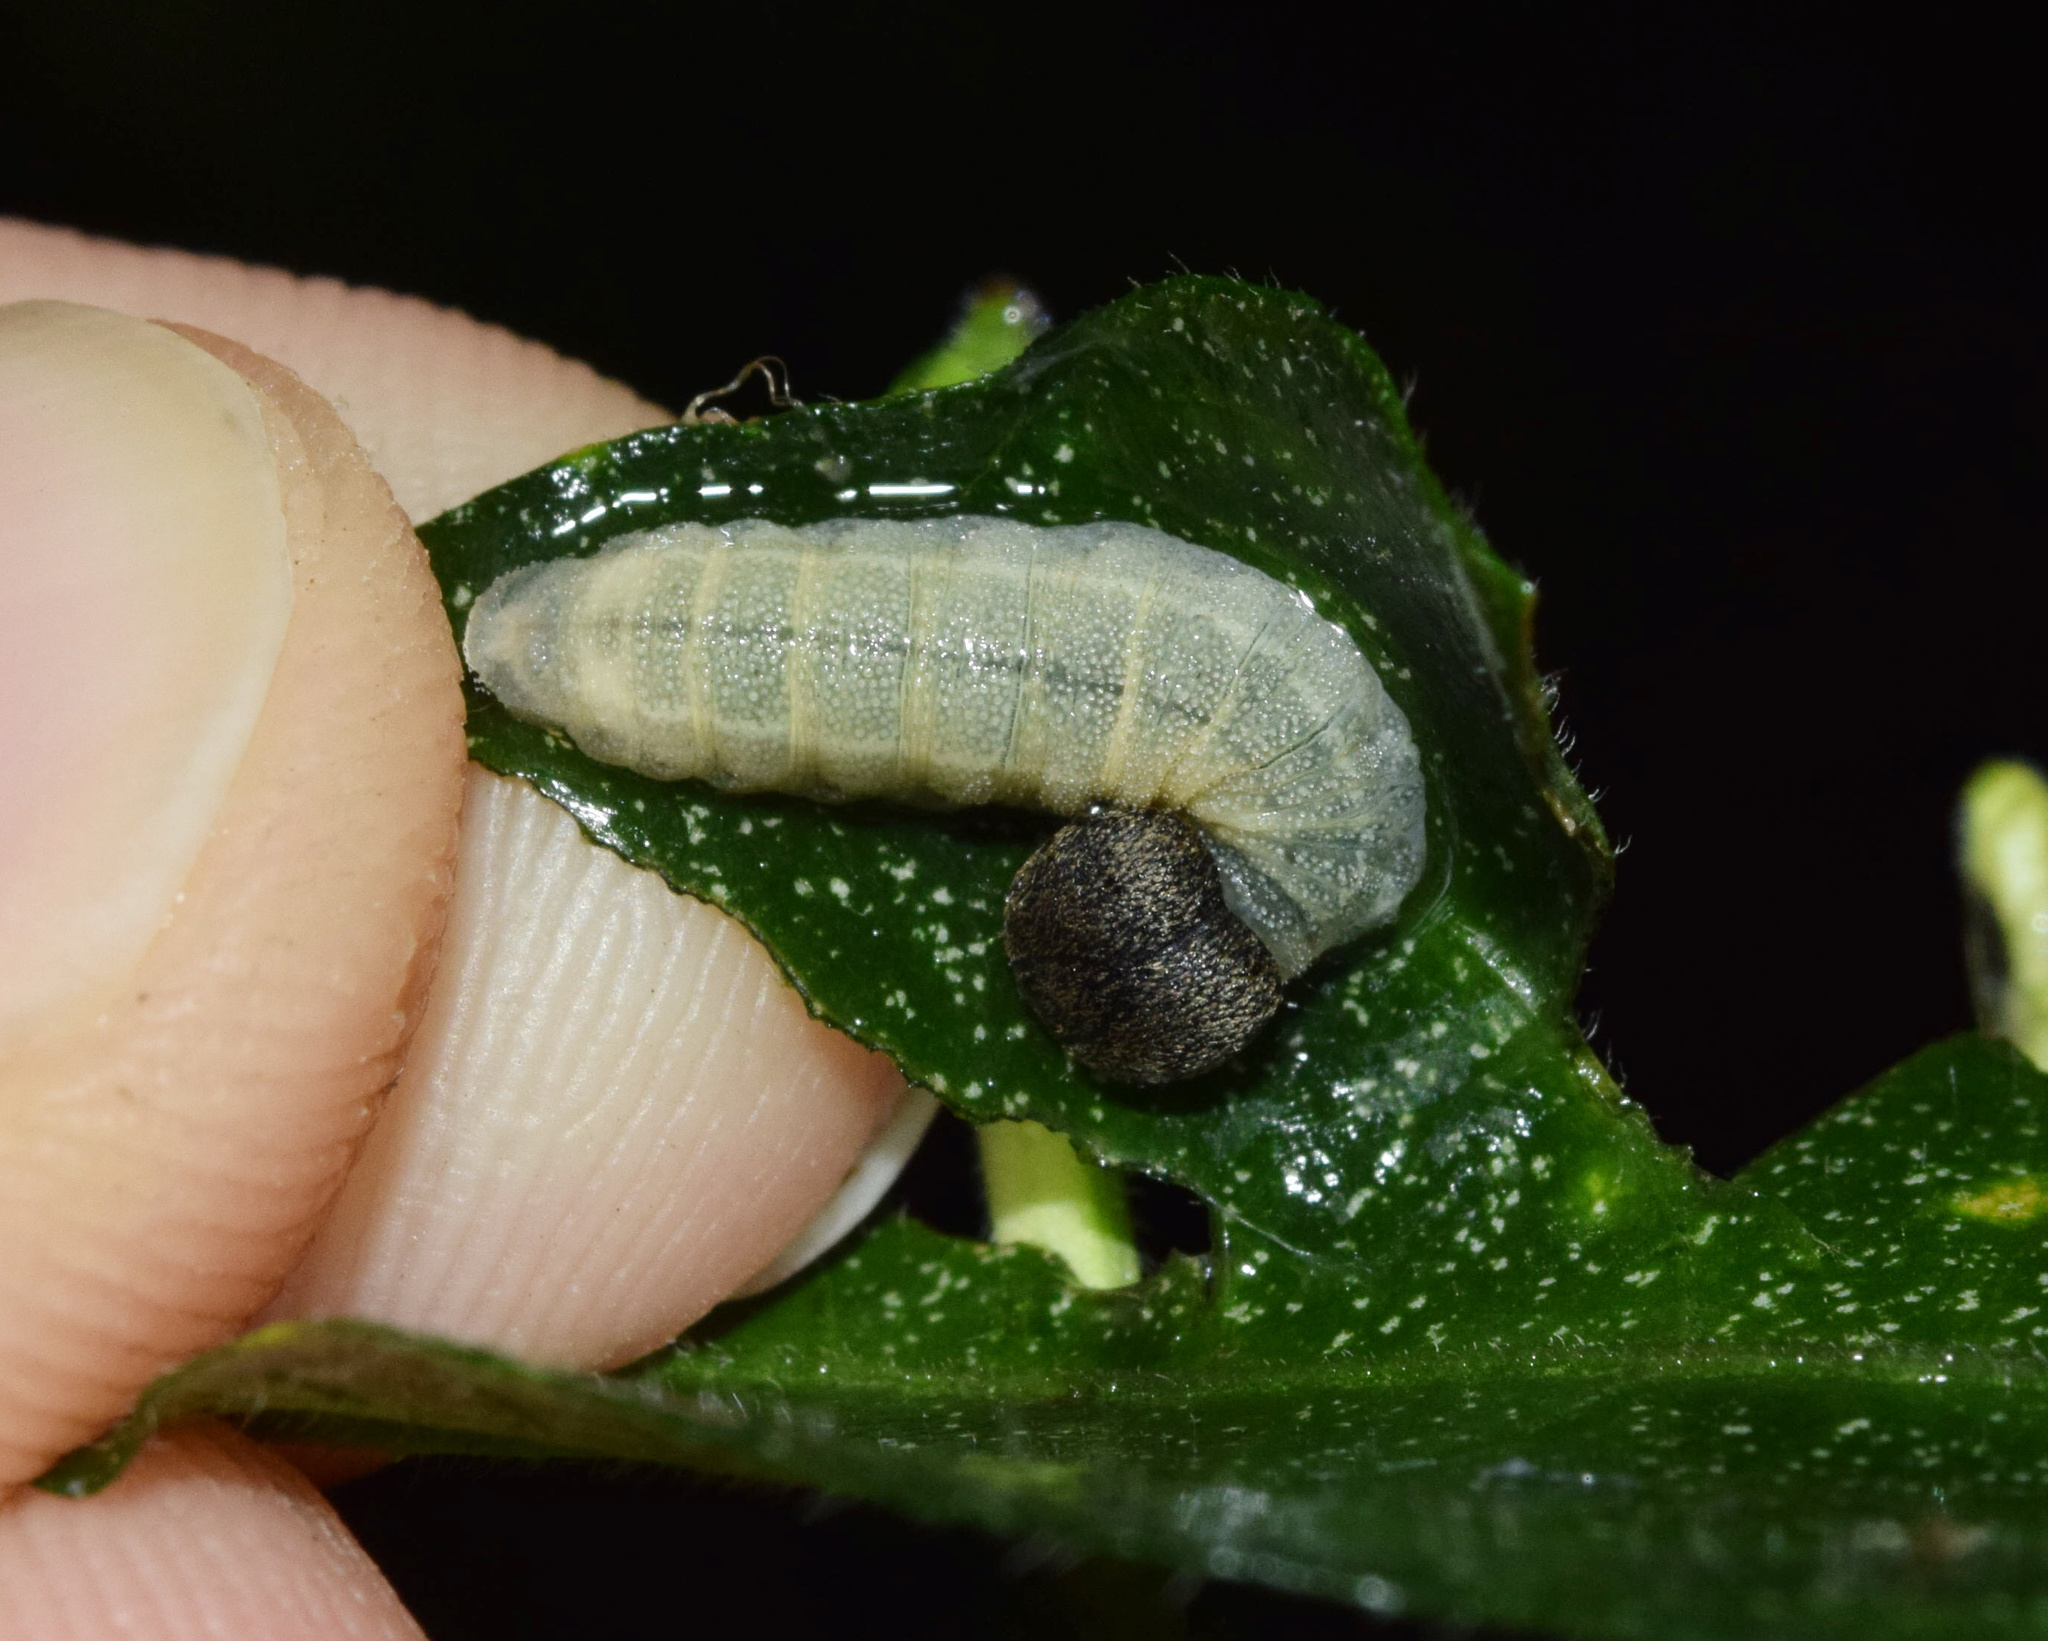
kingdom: Animalia
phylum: Arthropoda
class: Insecta
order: Lepidoptera
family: Hesperiidae
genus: Sarangesa
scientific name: Sarangesa motozi
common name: Forest elfin
